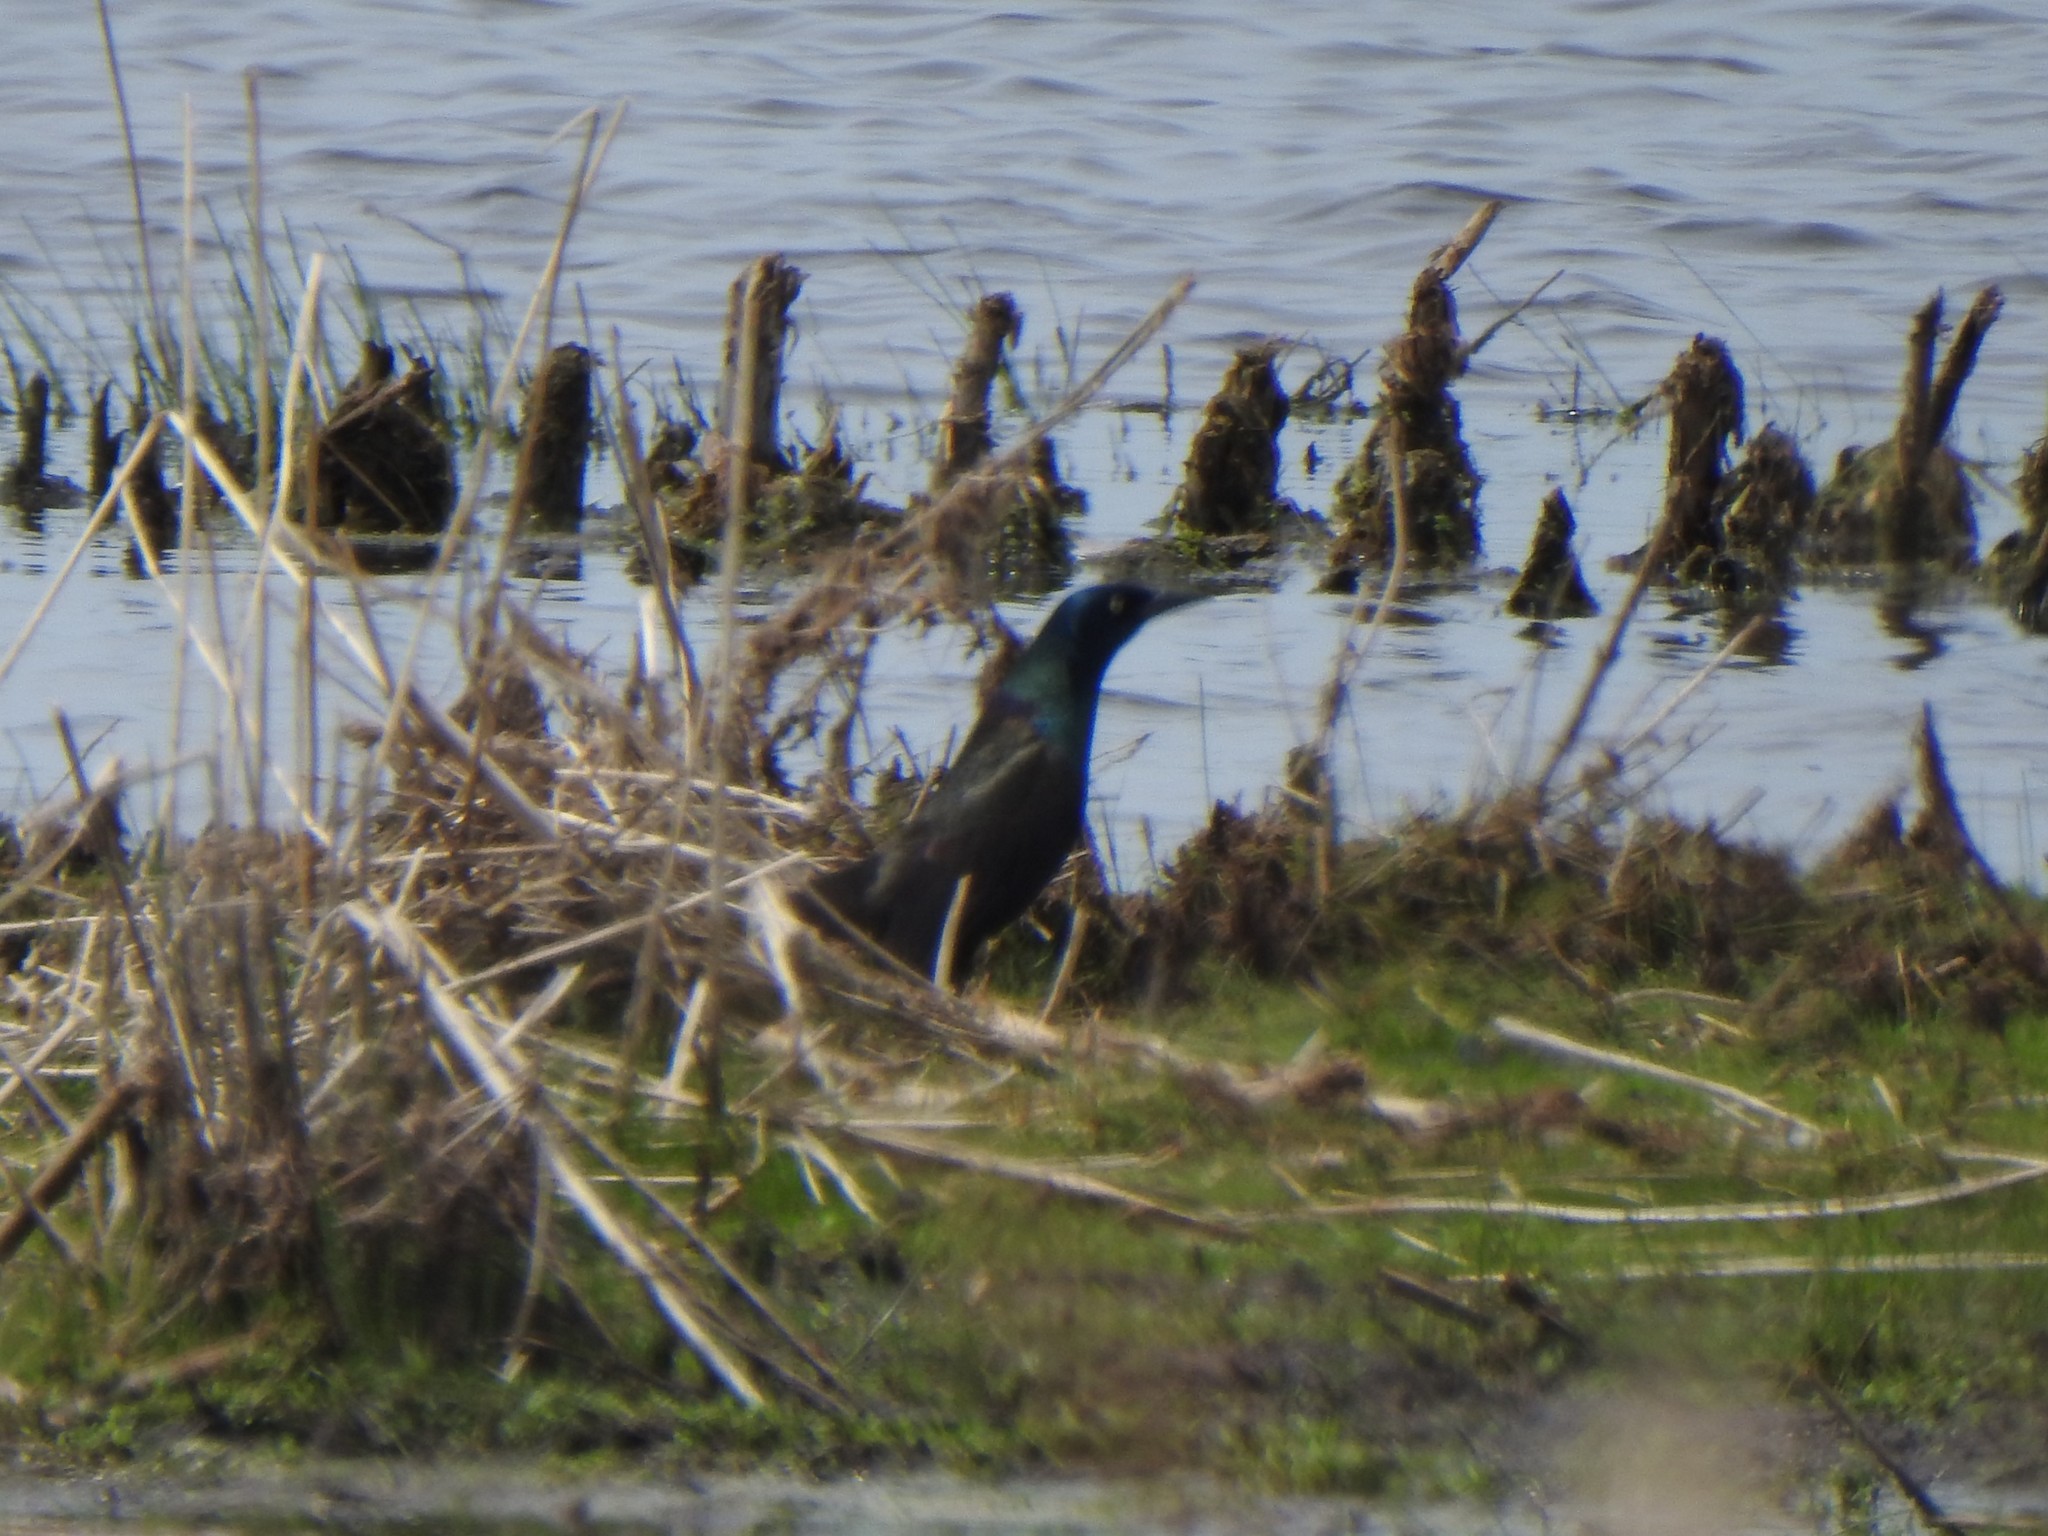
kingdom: Animalia
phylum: Chordata
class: Aves
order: Passeriformes
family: Icteridae
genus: Quiscalus
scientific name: Quiscalus quiscula
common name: Common grackle
